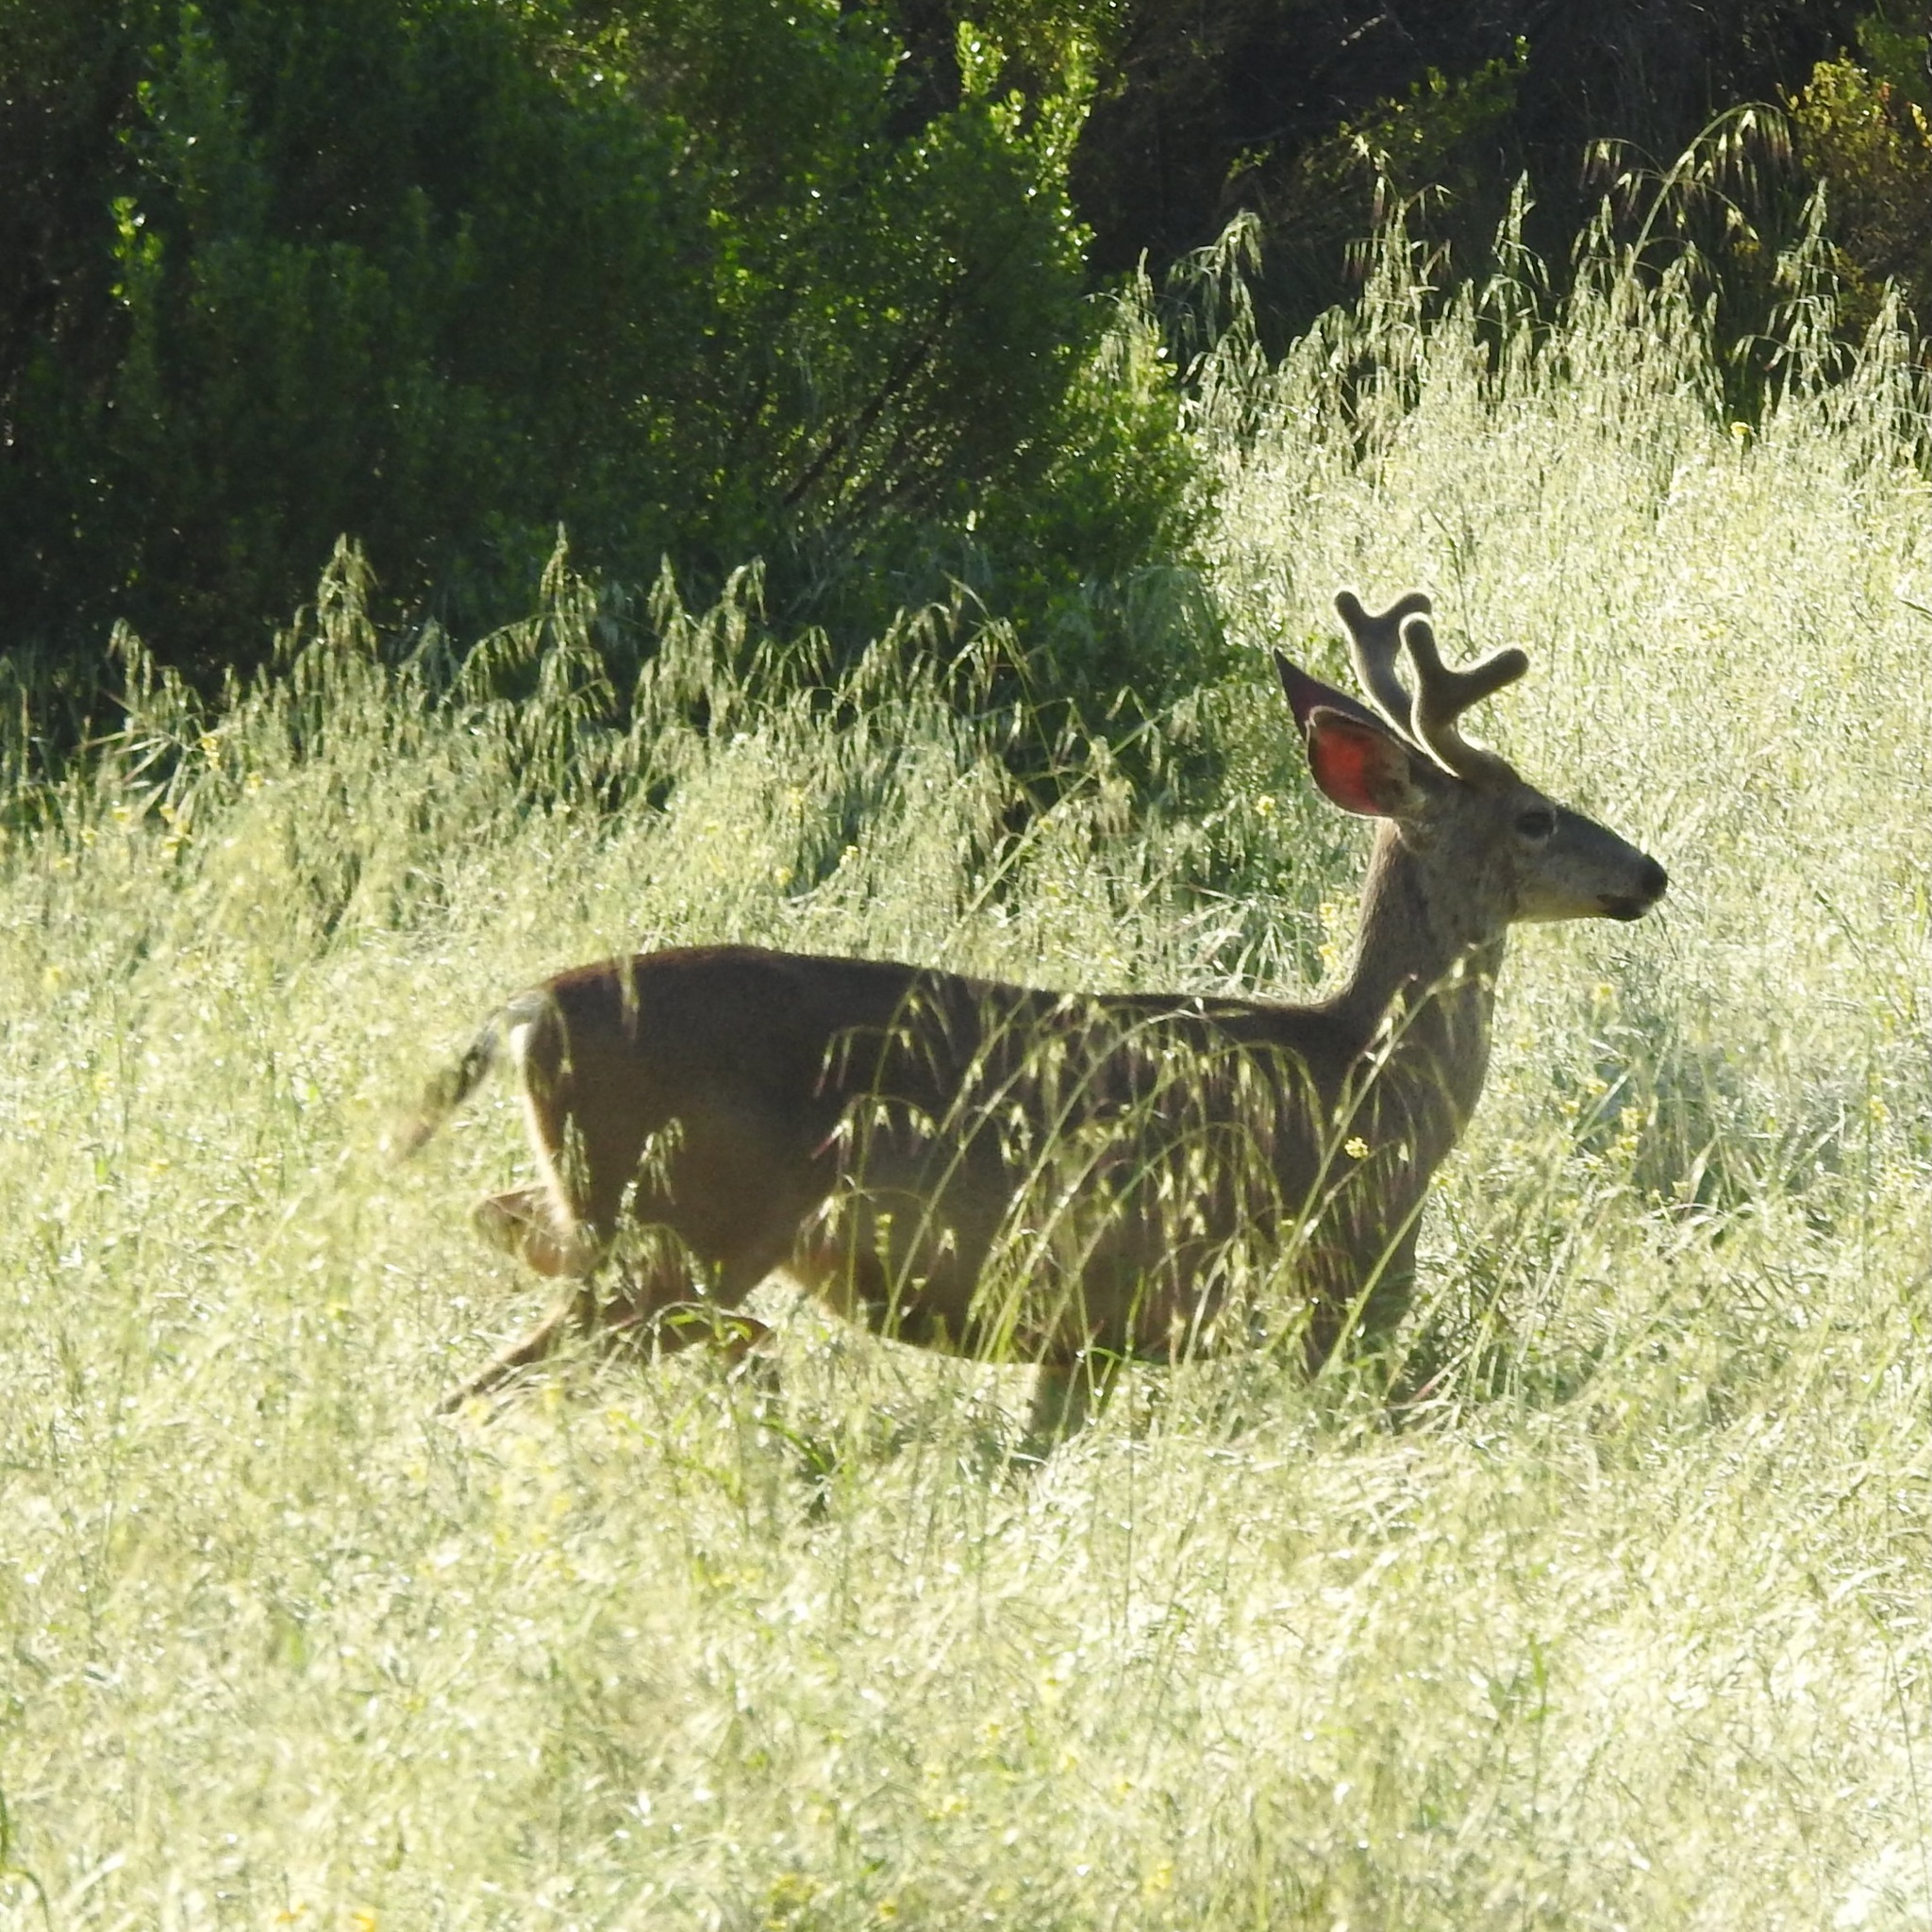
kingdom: Animalia
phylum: Chordata
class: Mammalia
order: Artiodactyla
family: Cervidae
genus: Odocoileus
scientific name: Odocoileus hemionus
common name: Mule deer
